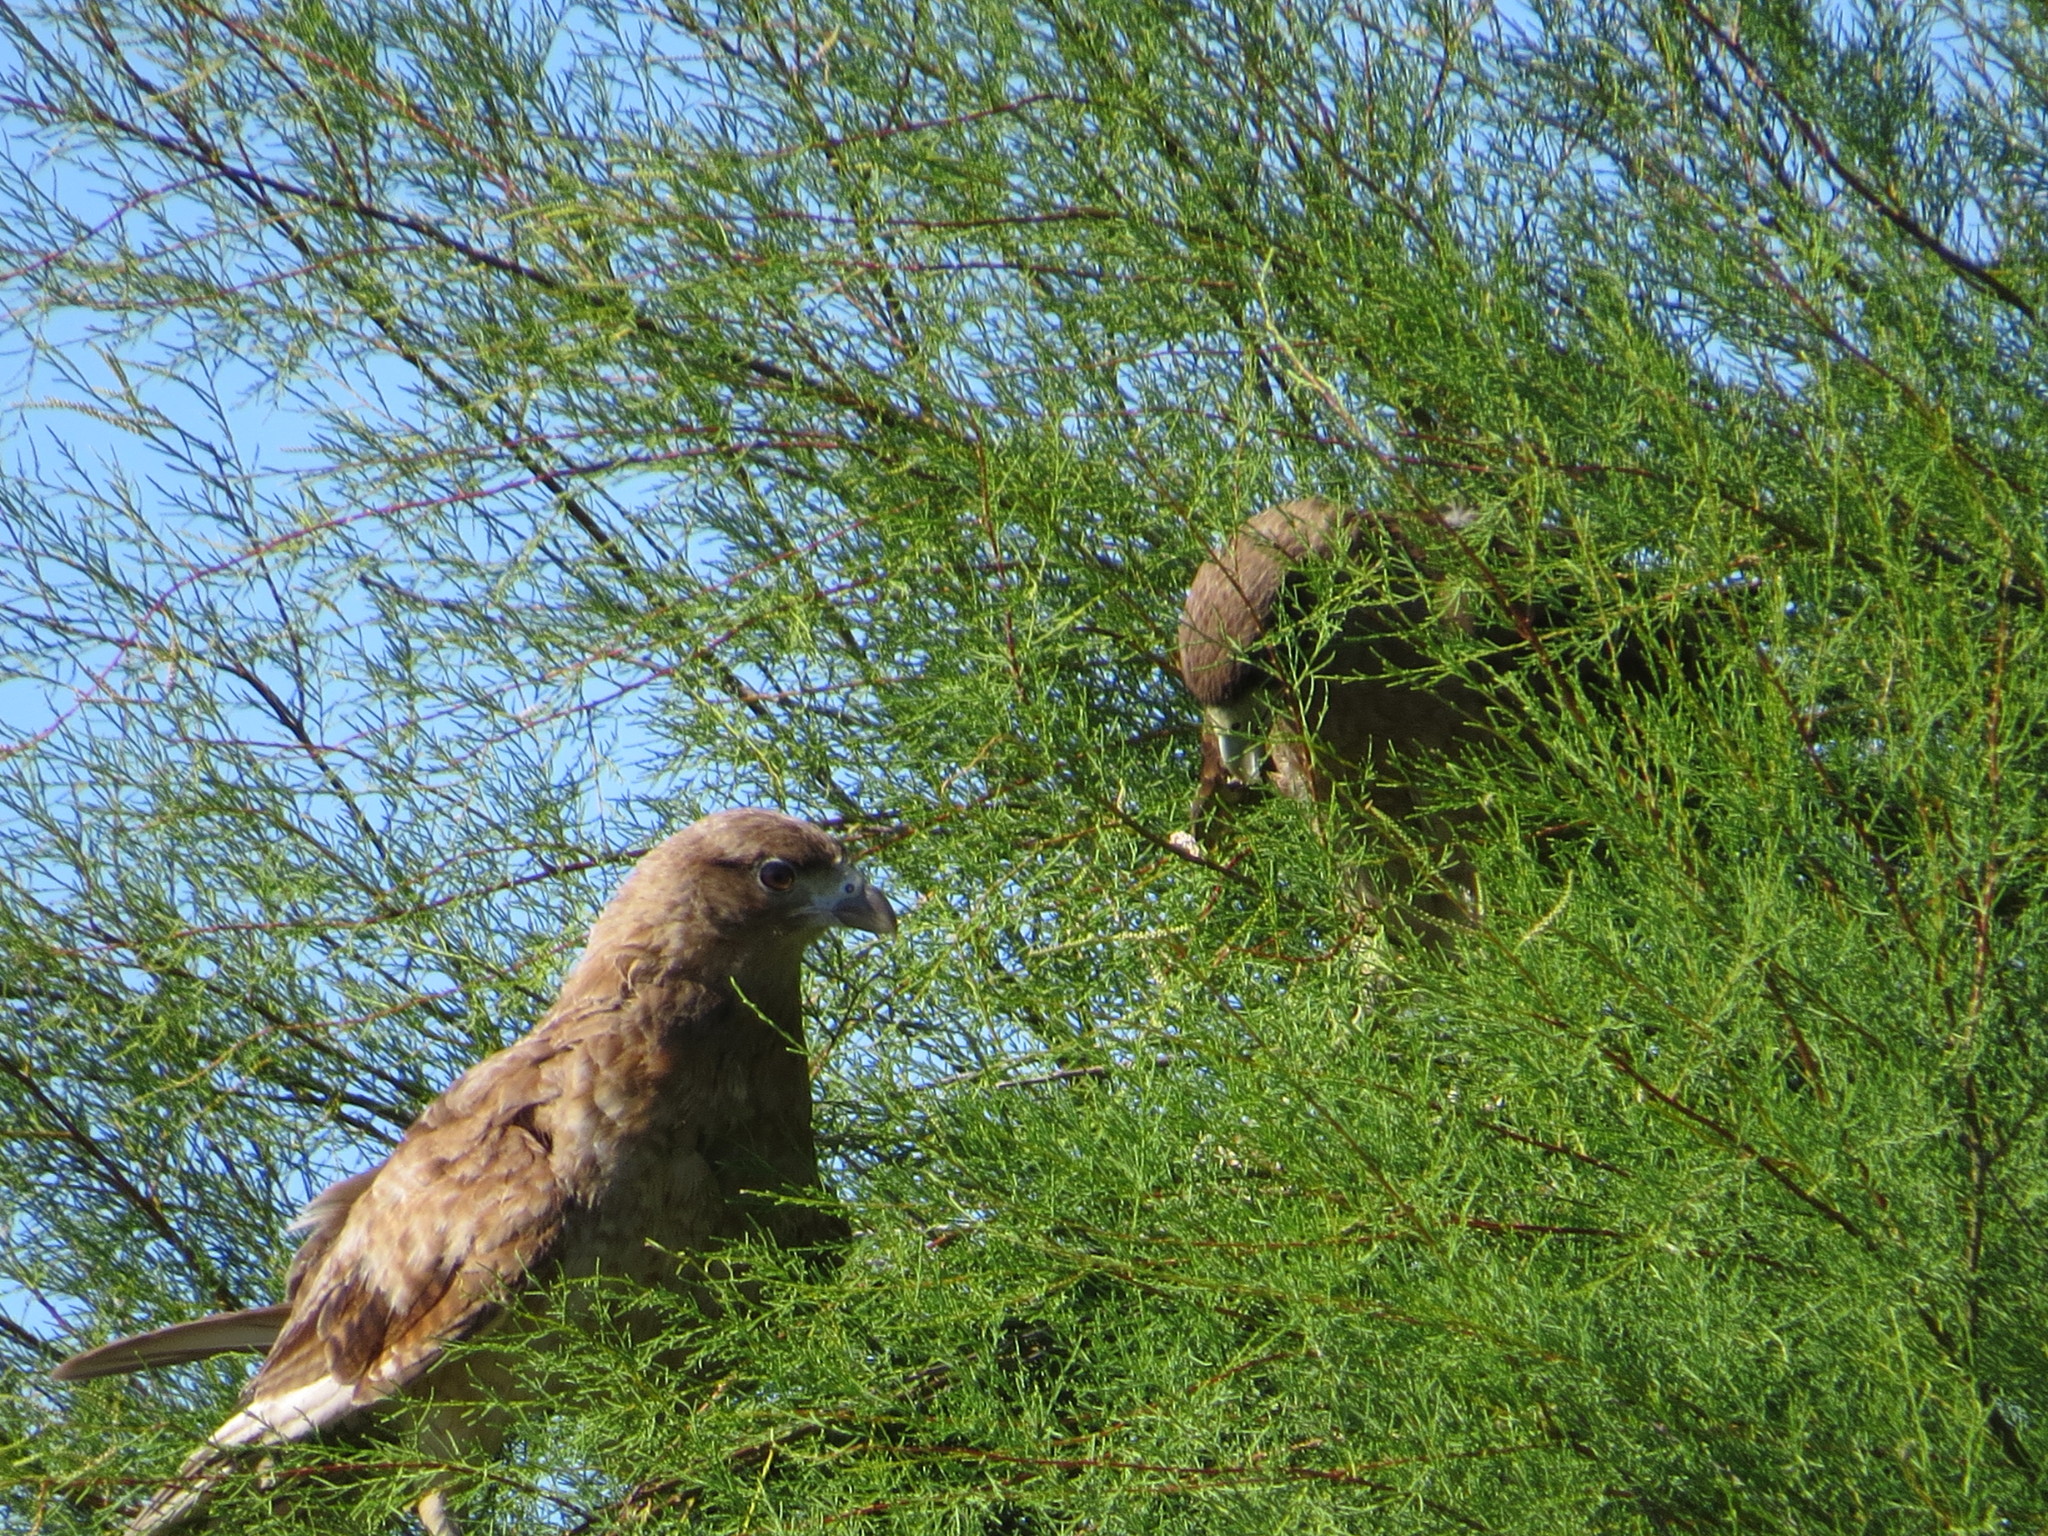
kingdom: Animalia
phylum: Chordata
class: Aves
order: Falconiformes
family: Falconidae
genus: Daptrius
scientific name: Daptrius
